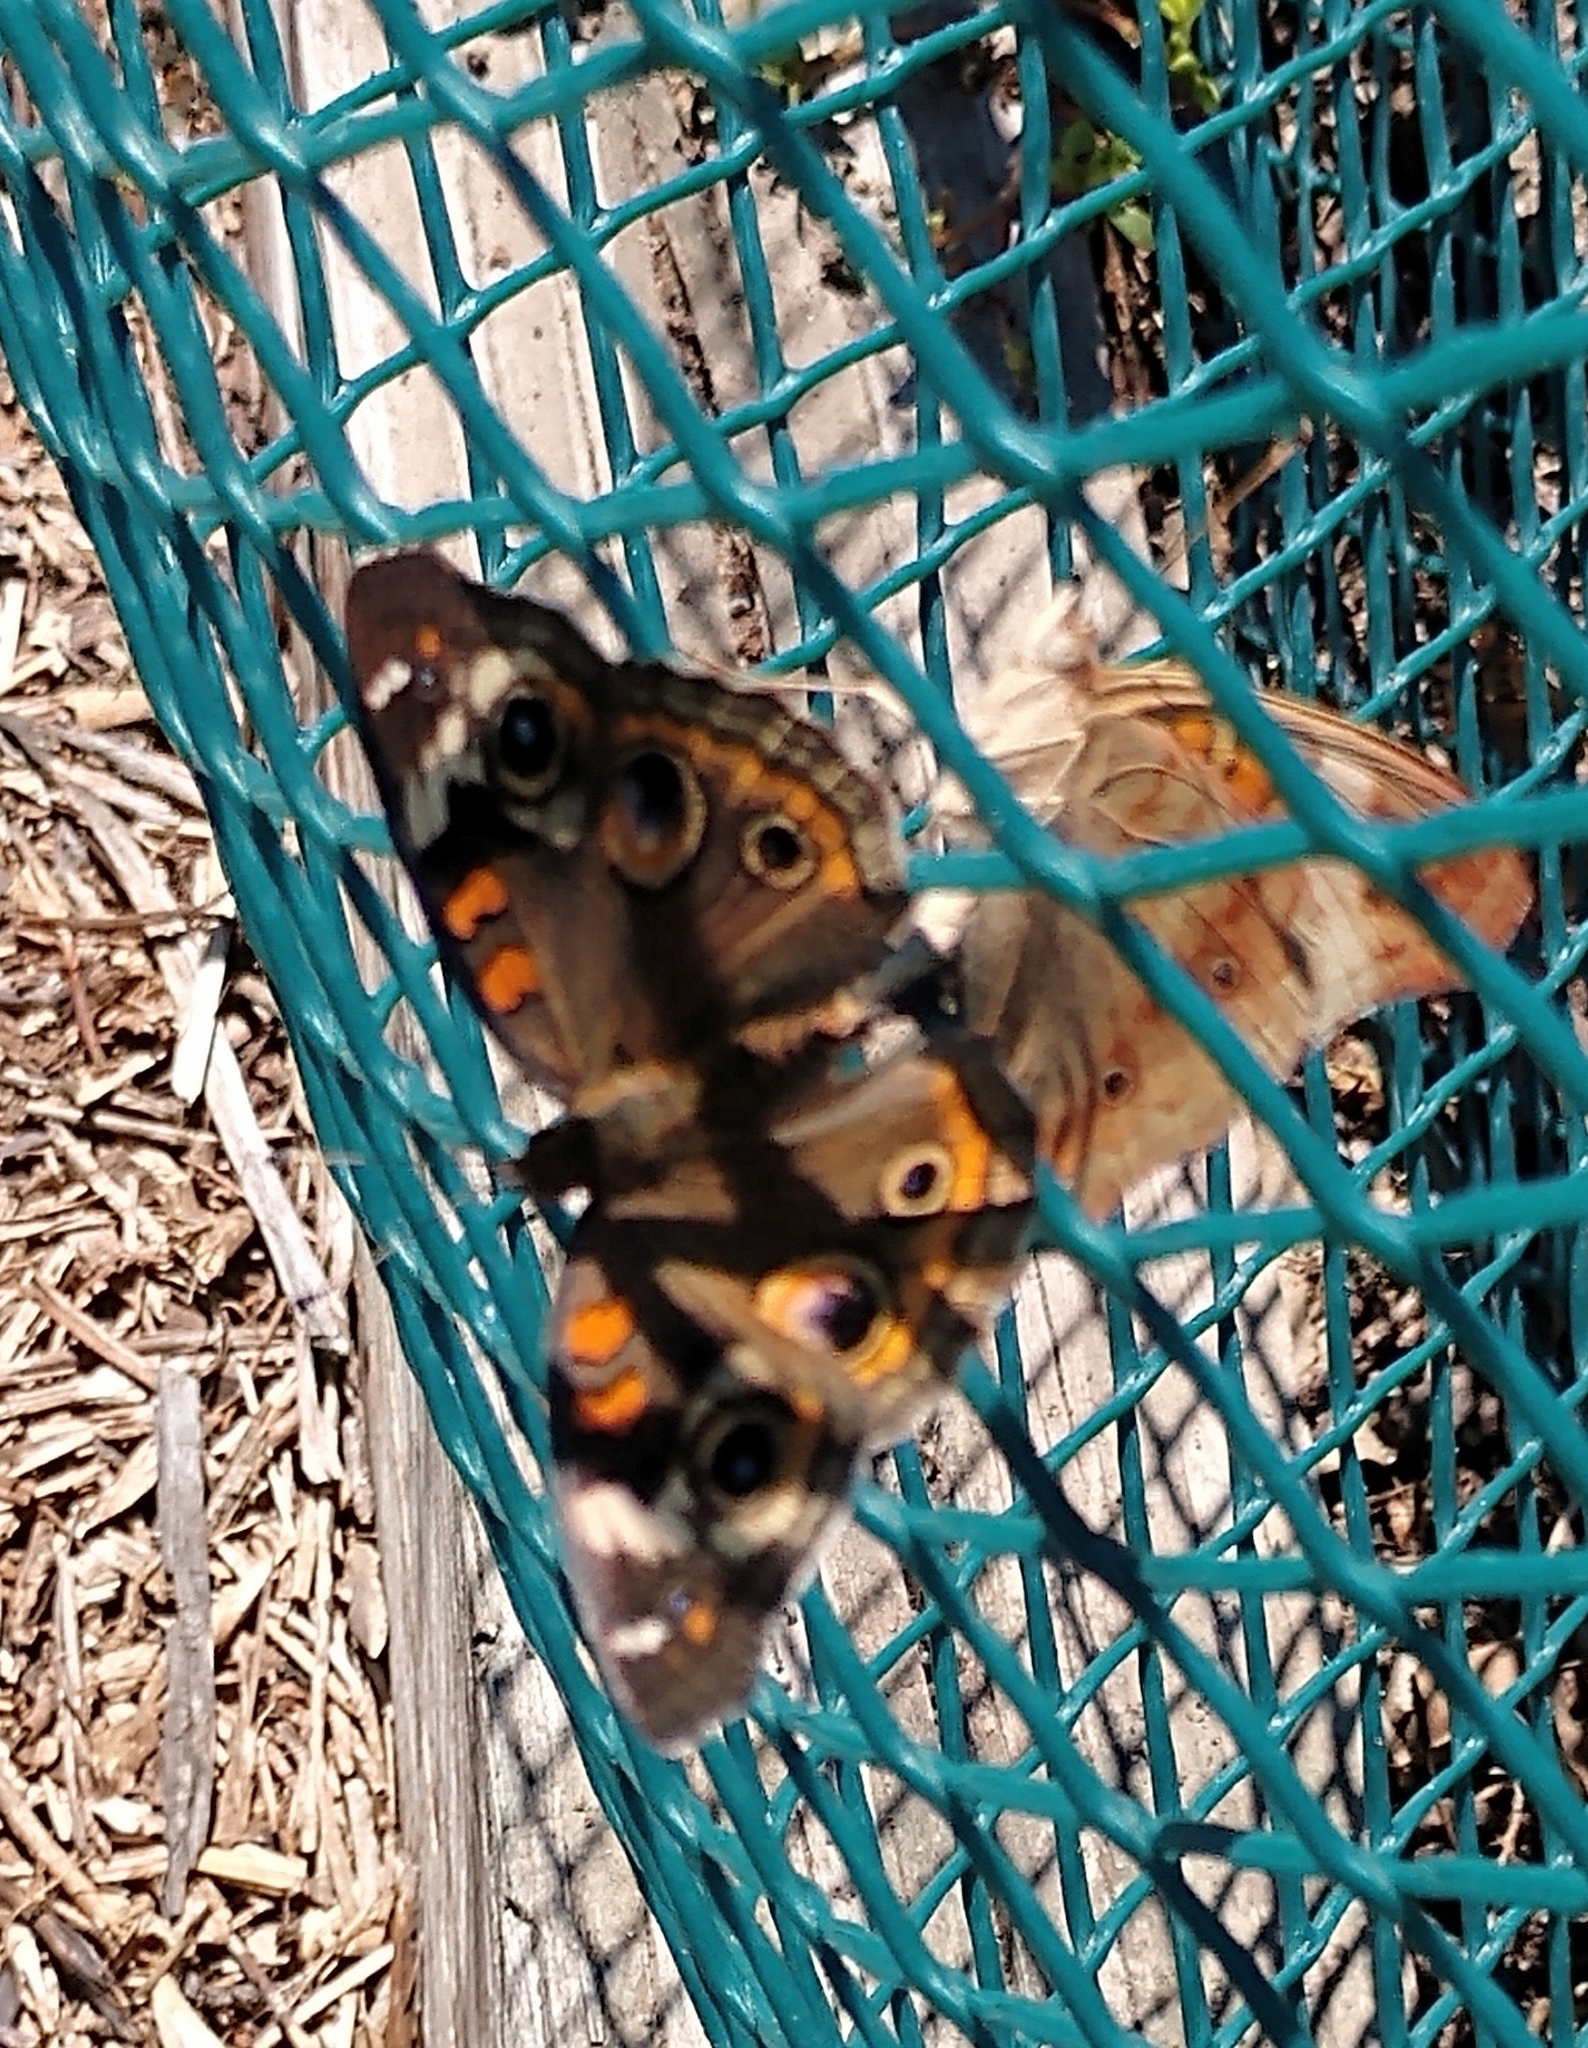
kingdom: Animalia
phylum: Arthropoda
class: Insecta
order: Lepidoptera
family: Nymphalidae
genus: Junonia
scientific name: Junonia coenia
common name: Common buckeye
